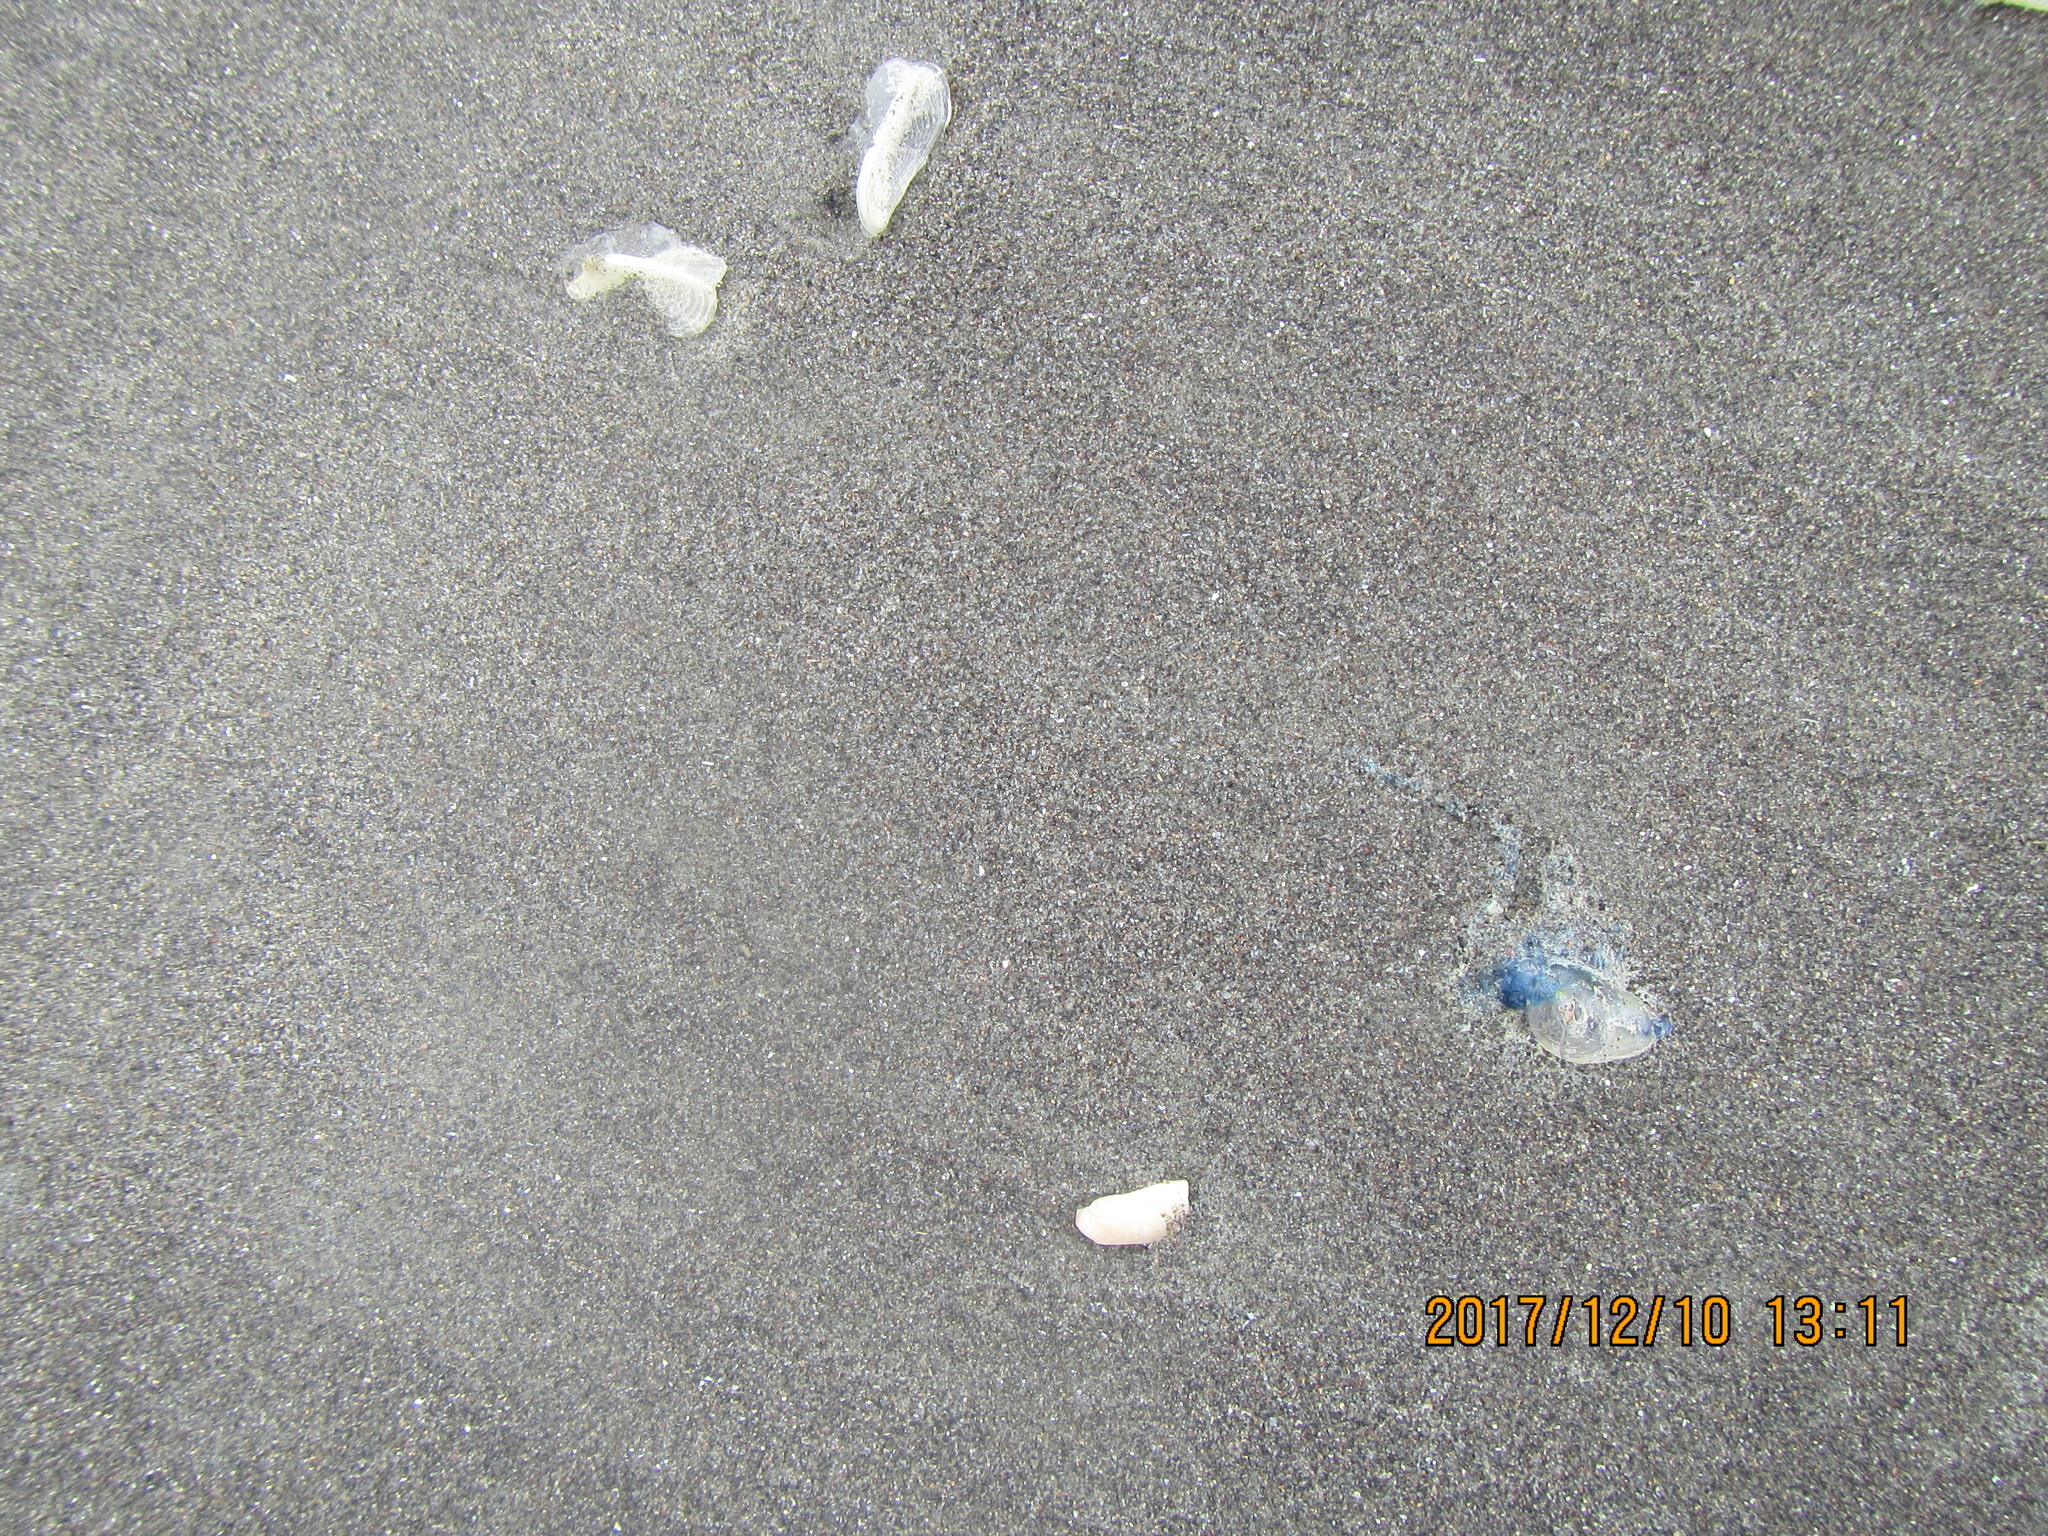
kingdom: Animalia
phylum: Cnidaria
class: Hydrozoa
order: Siphonophorae
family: Physaliidae
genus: Physalia
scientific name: Physalia physalis
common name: Portuguese man-of-war
